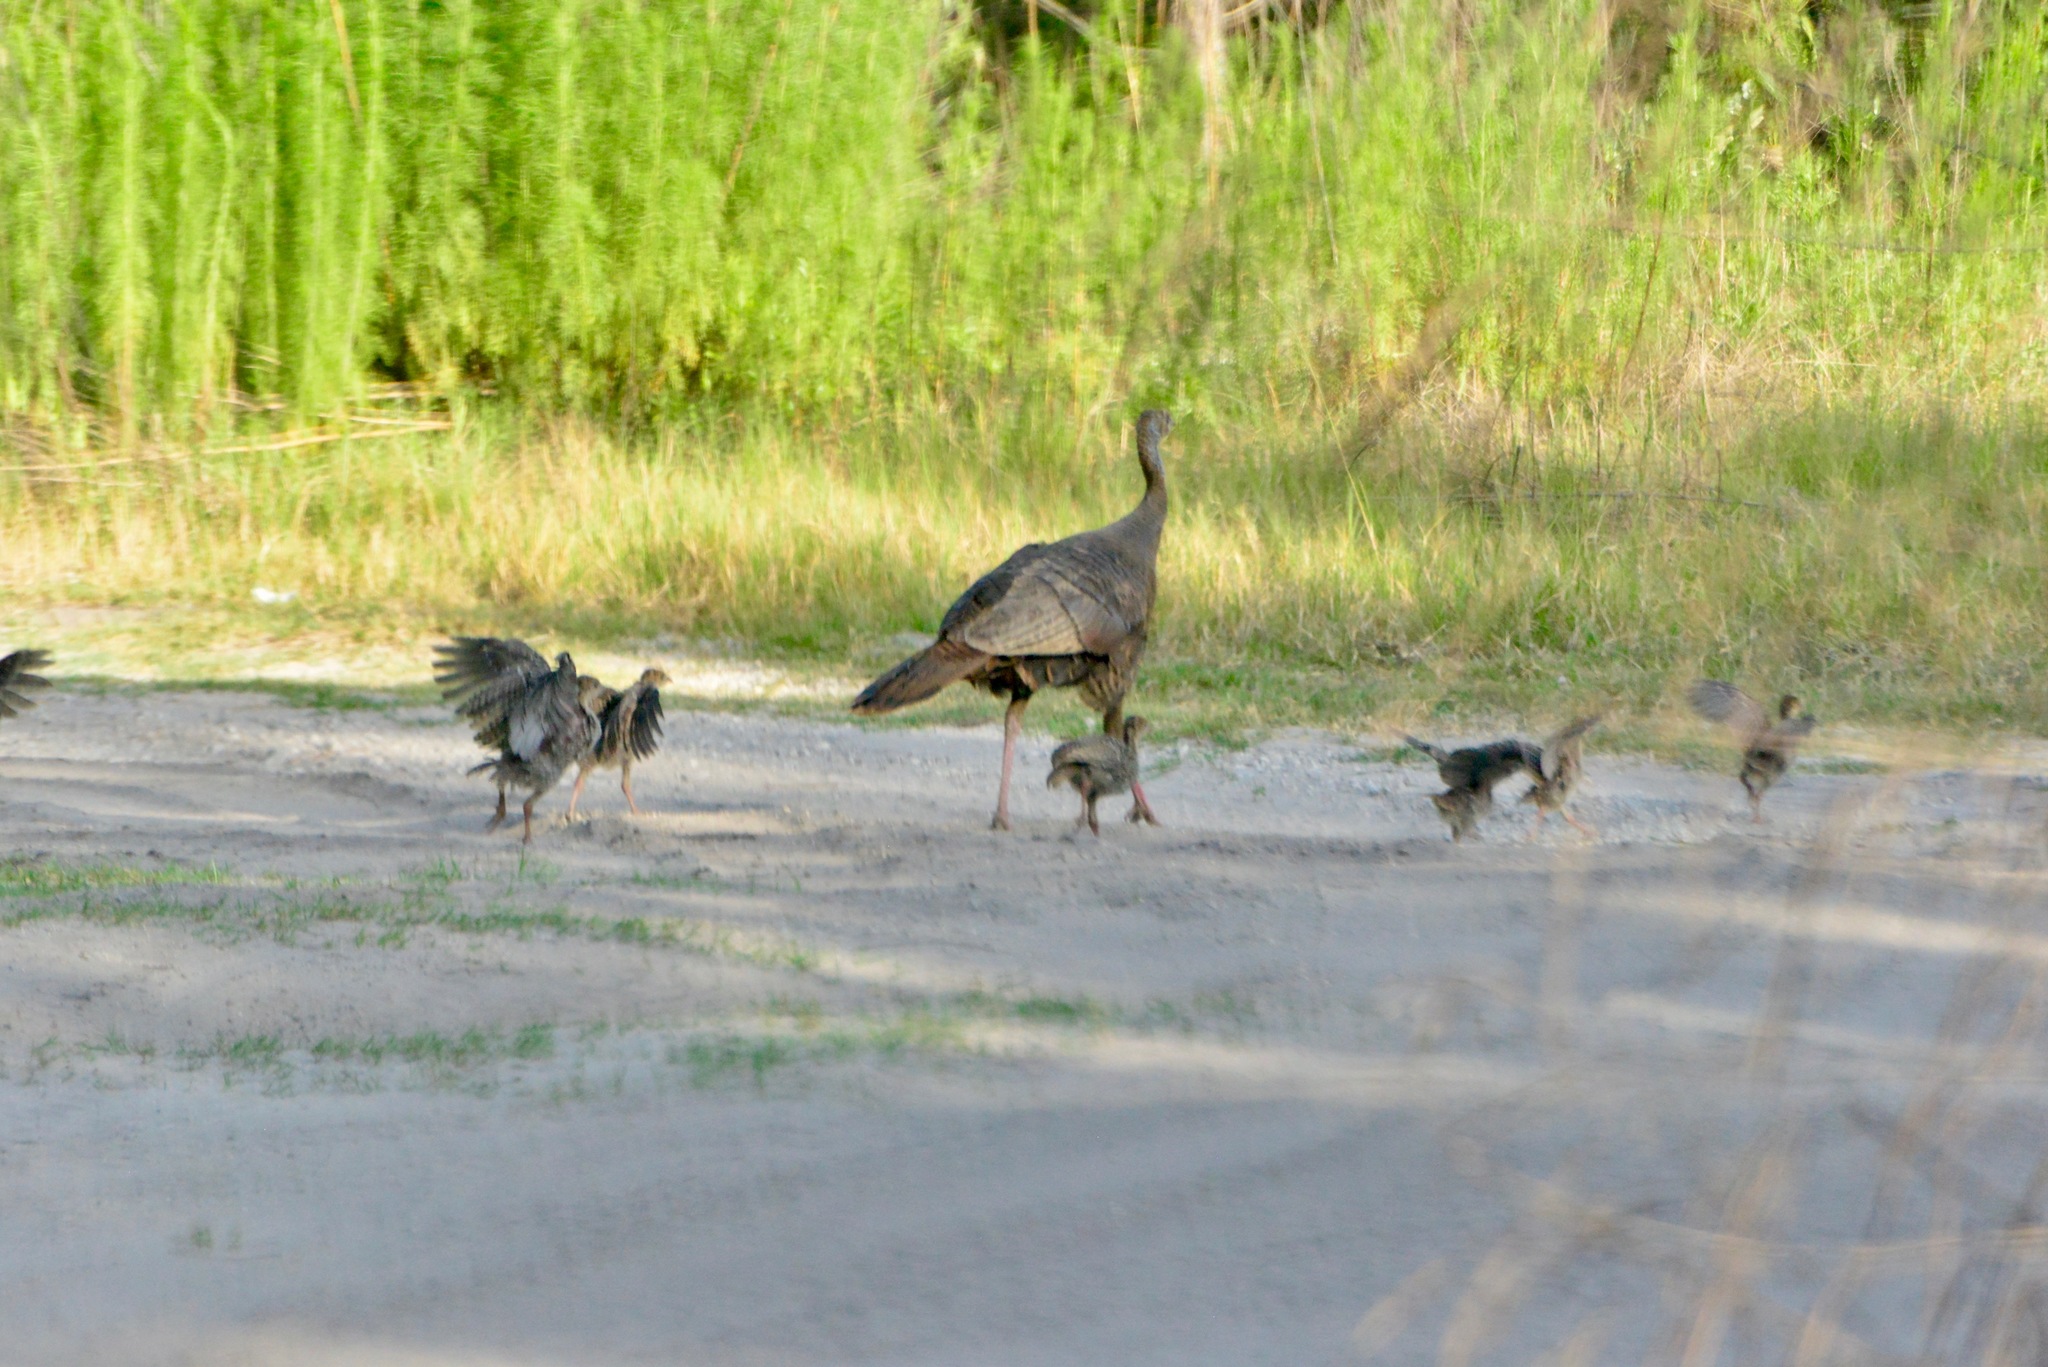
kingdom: Animalia
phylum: Chordata
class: Aves
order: Galliformes
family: Phasianidae
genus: Meleagris
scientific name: Meleagris gallopavo
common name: Wild turkey
